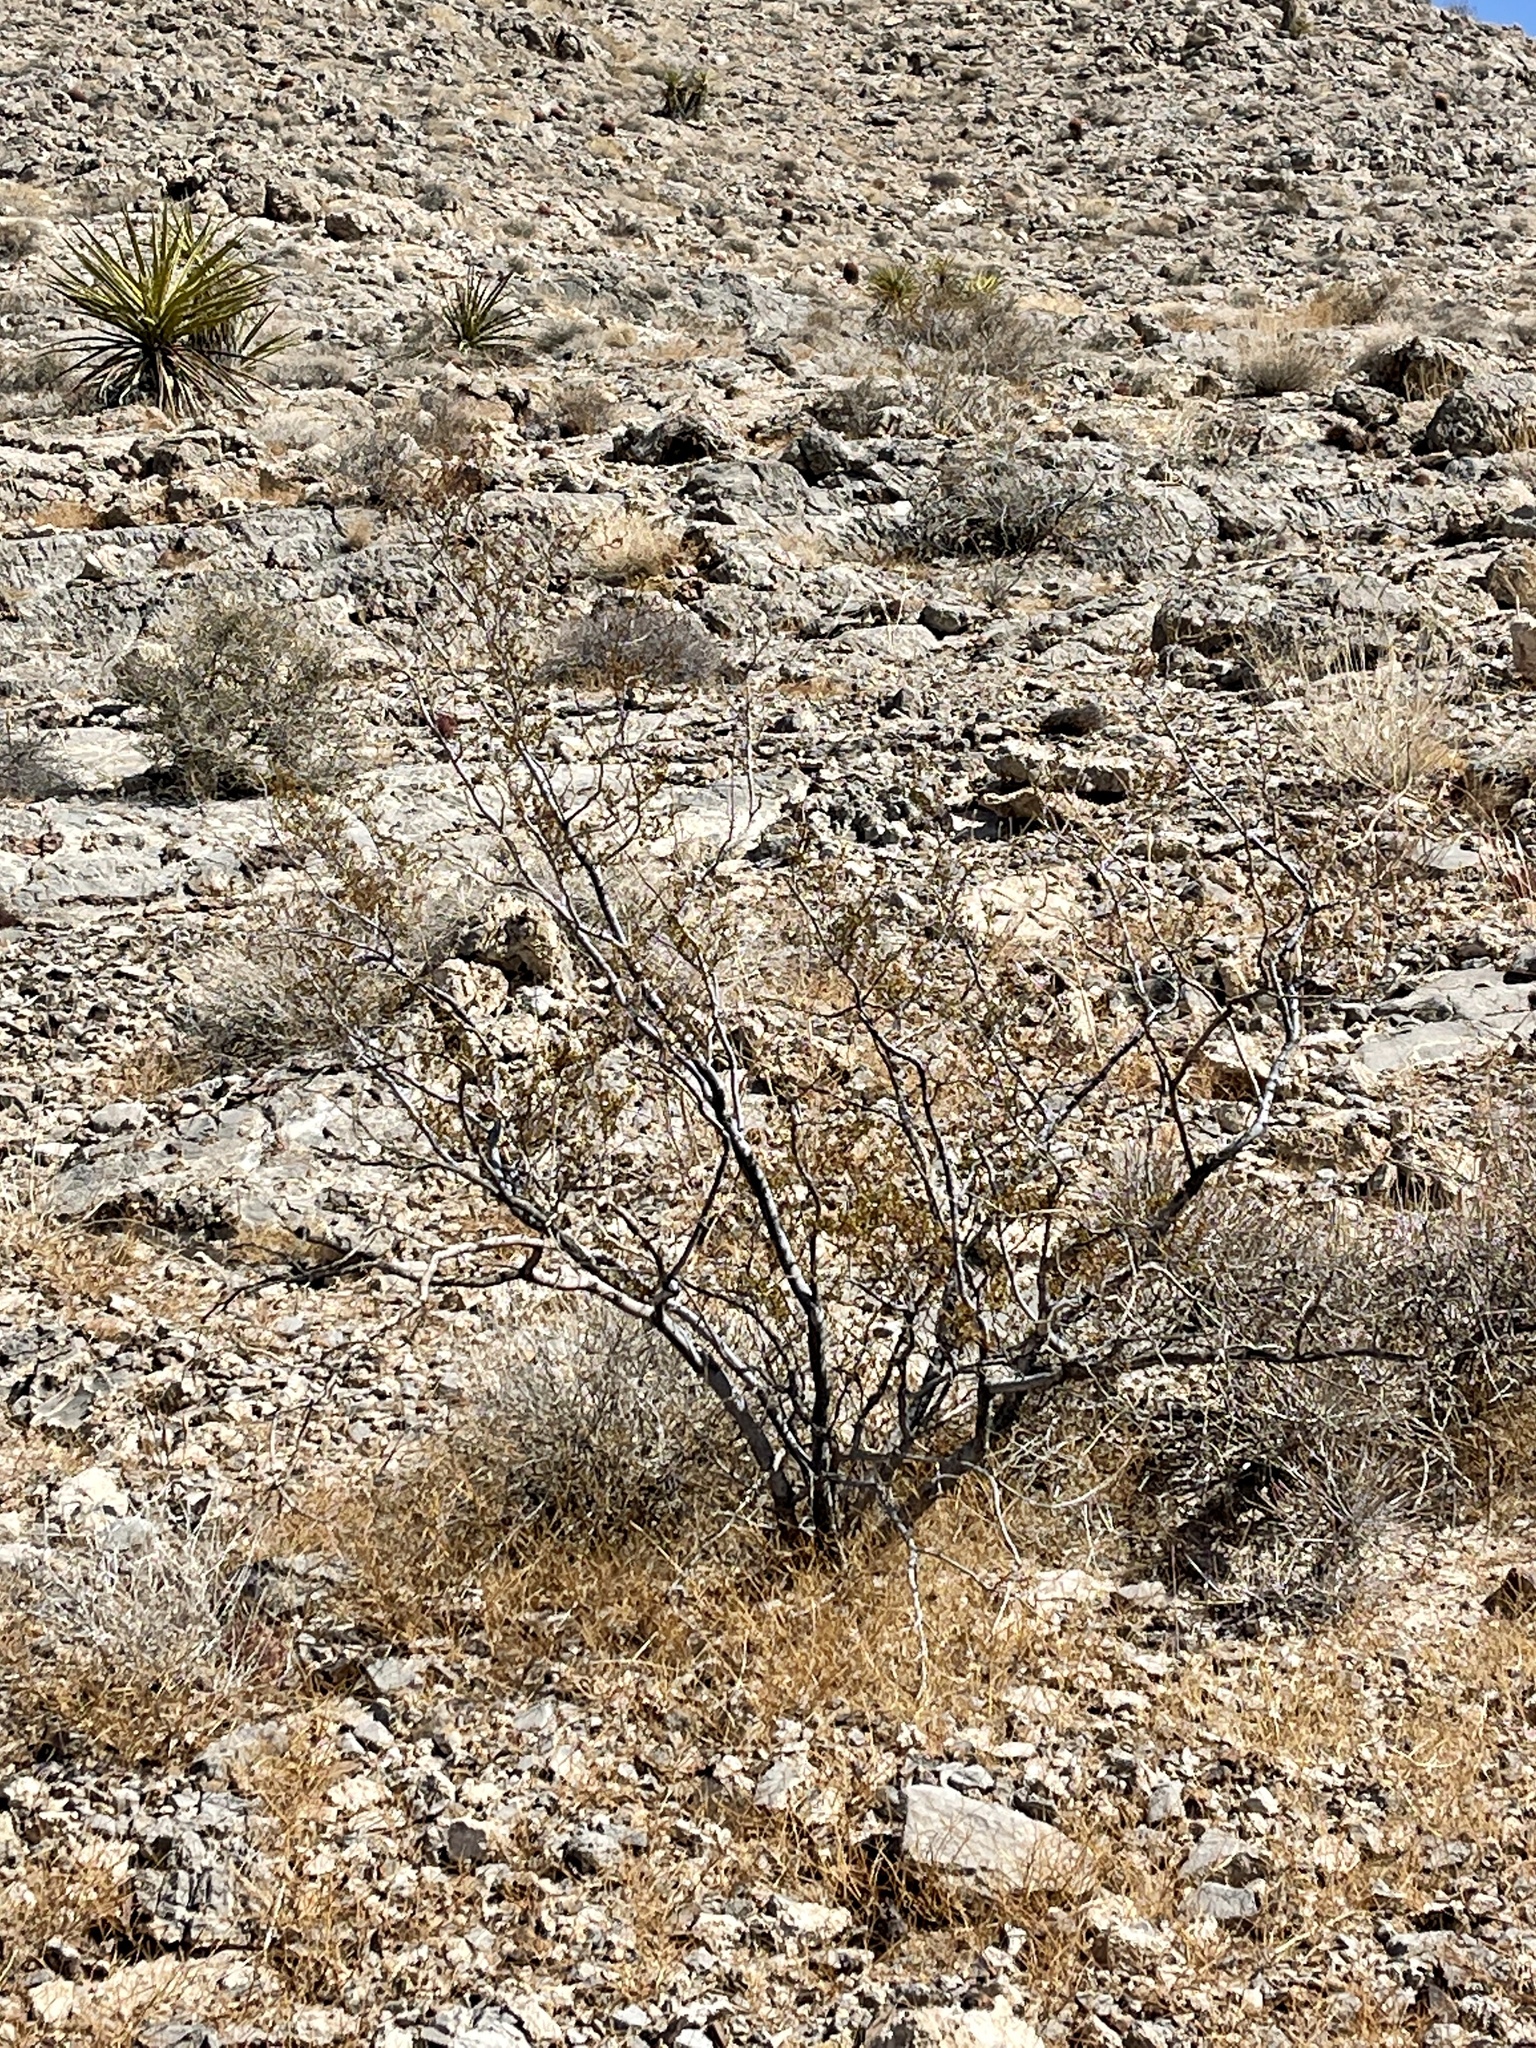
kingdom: Plantae
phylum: Tracheophyta
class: Magnoliopsida
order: Zygophyllales
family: Zygophyllaceae
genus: Larrea
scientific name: Larrea tridentata
